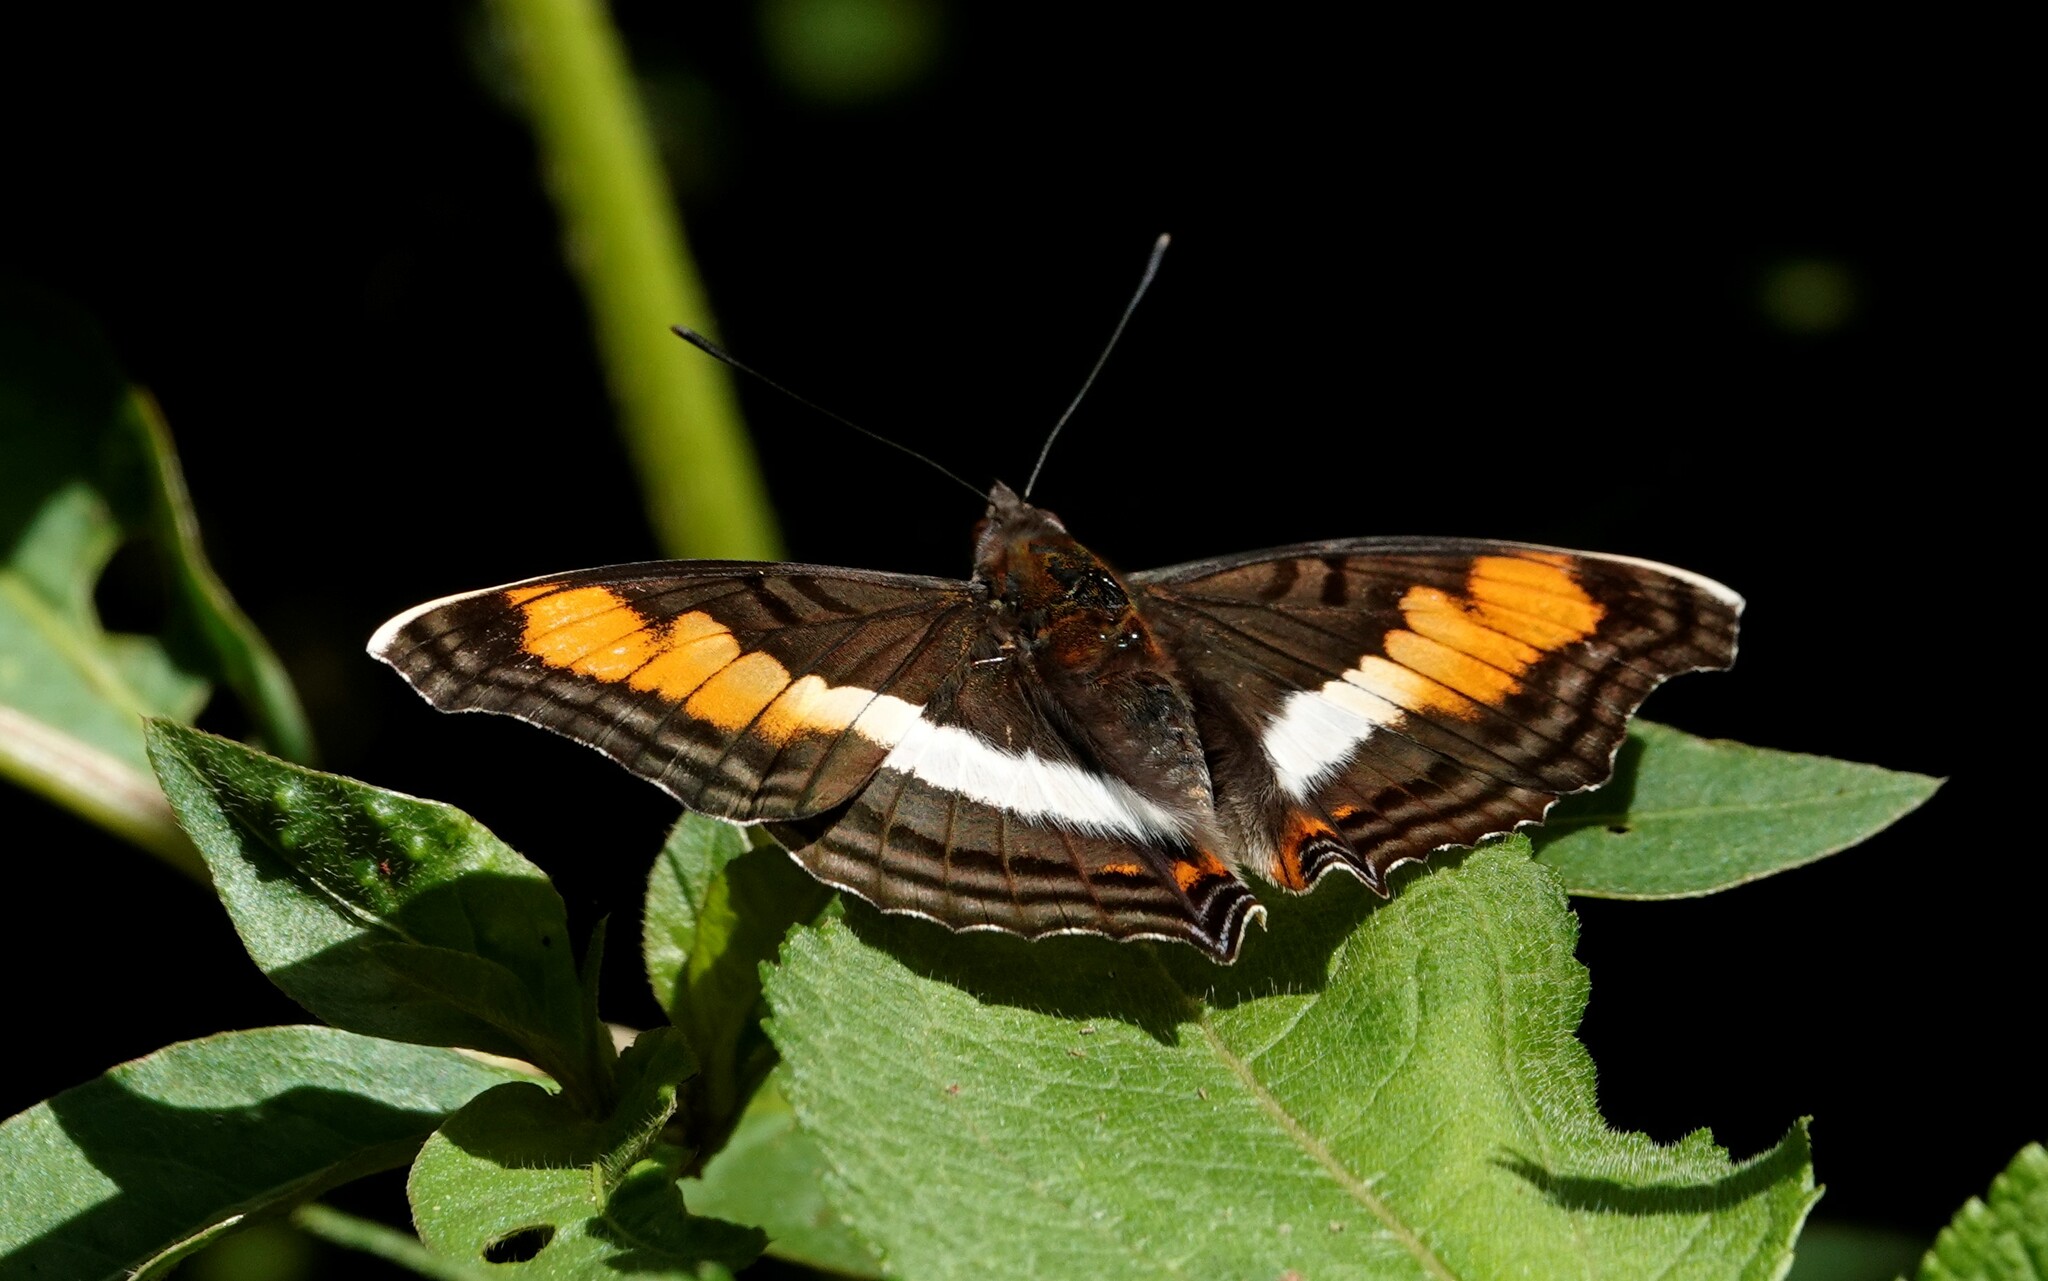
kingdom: Animalia
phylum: Arthropoda
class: Insecta
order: Lepidoptera
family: Nymphalidae
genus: Doxocopa
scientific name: Doxocopa linda
